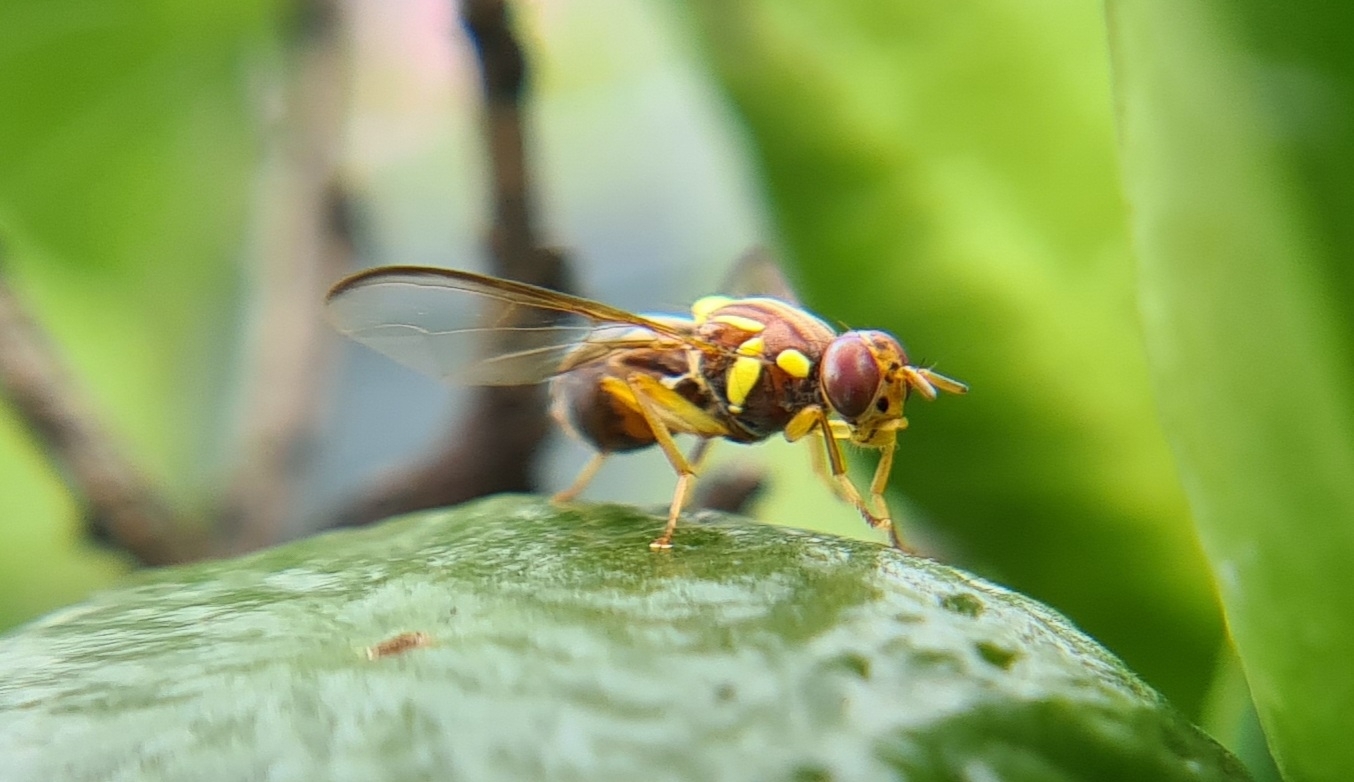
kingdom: Animalia
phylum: Arthropoda
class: Insecta
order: Diptera
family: Tephritidae
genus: Bactrocera
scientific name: Bactrocera tryoni
